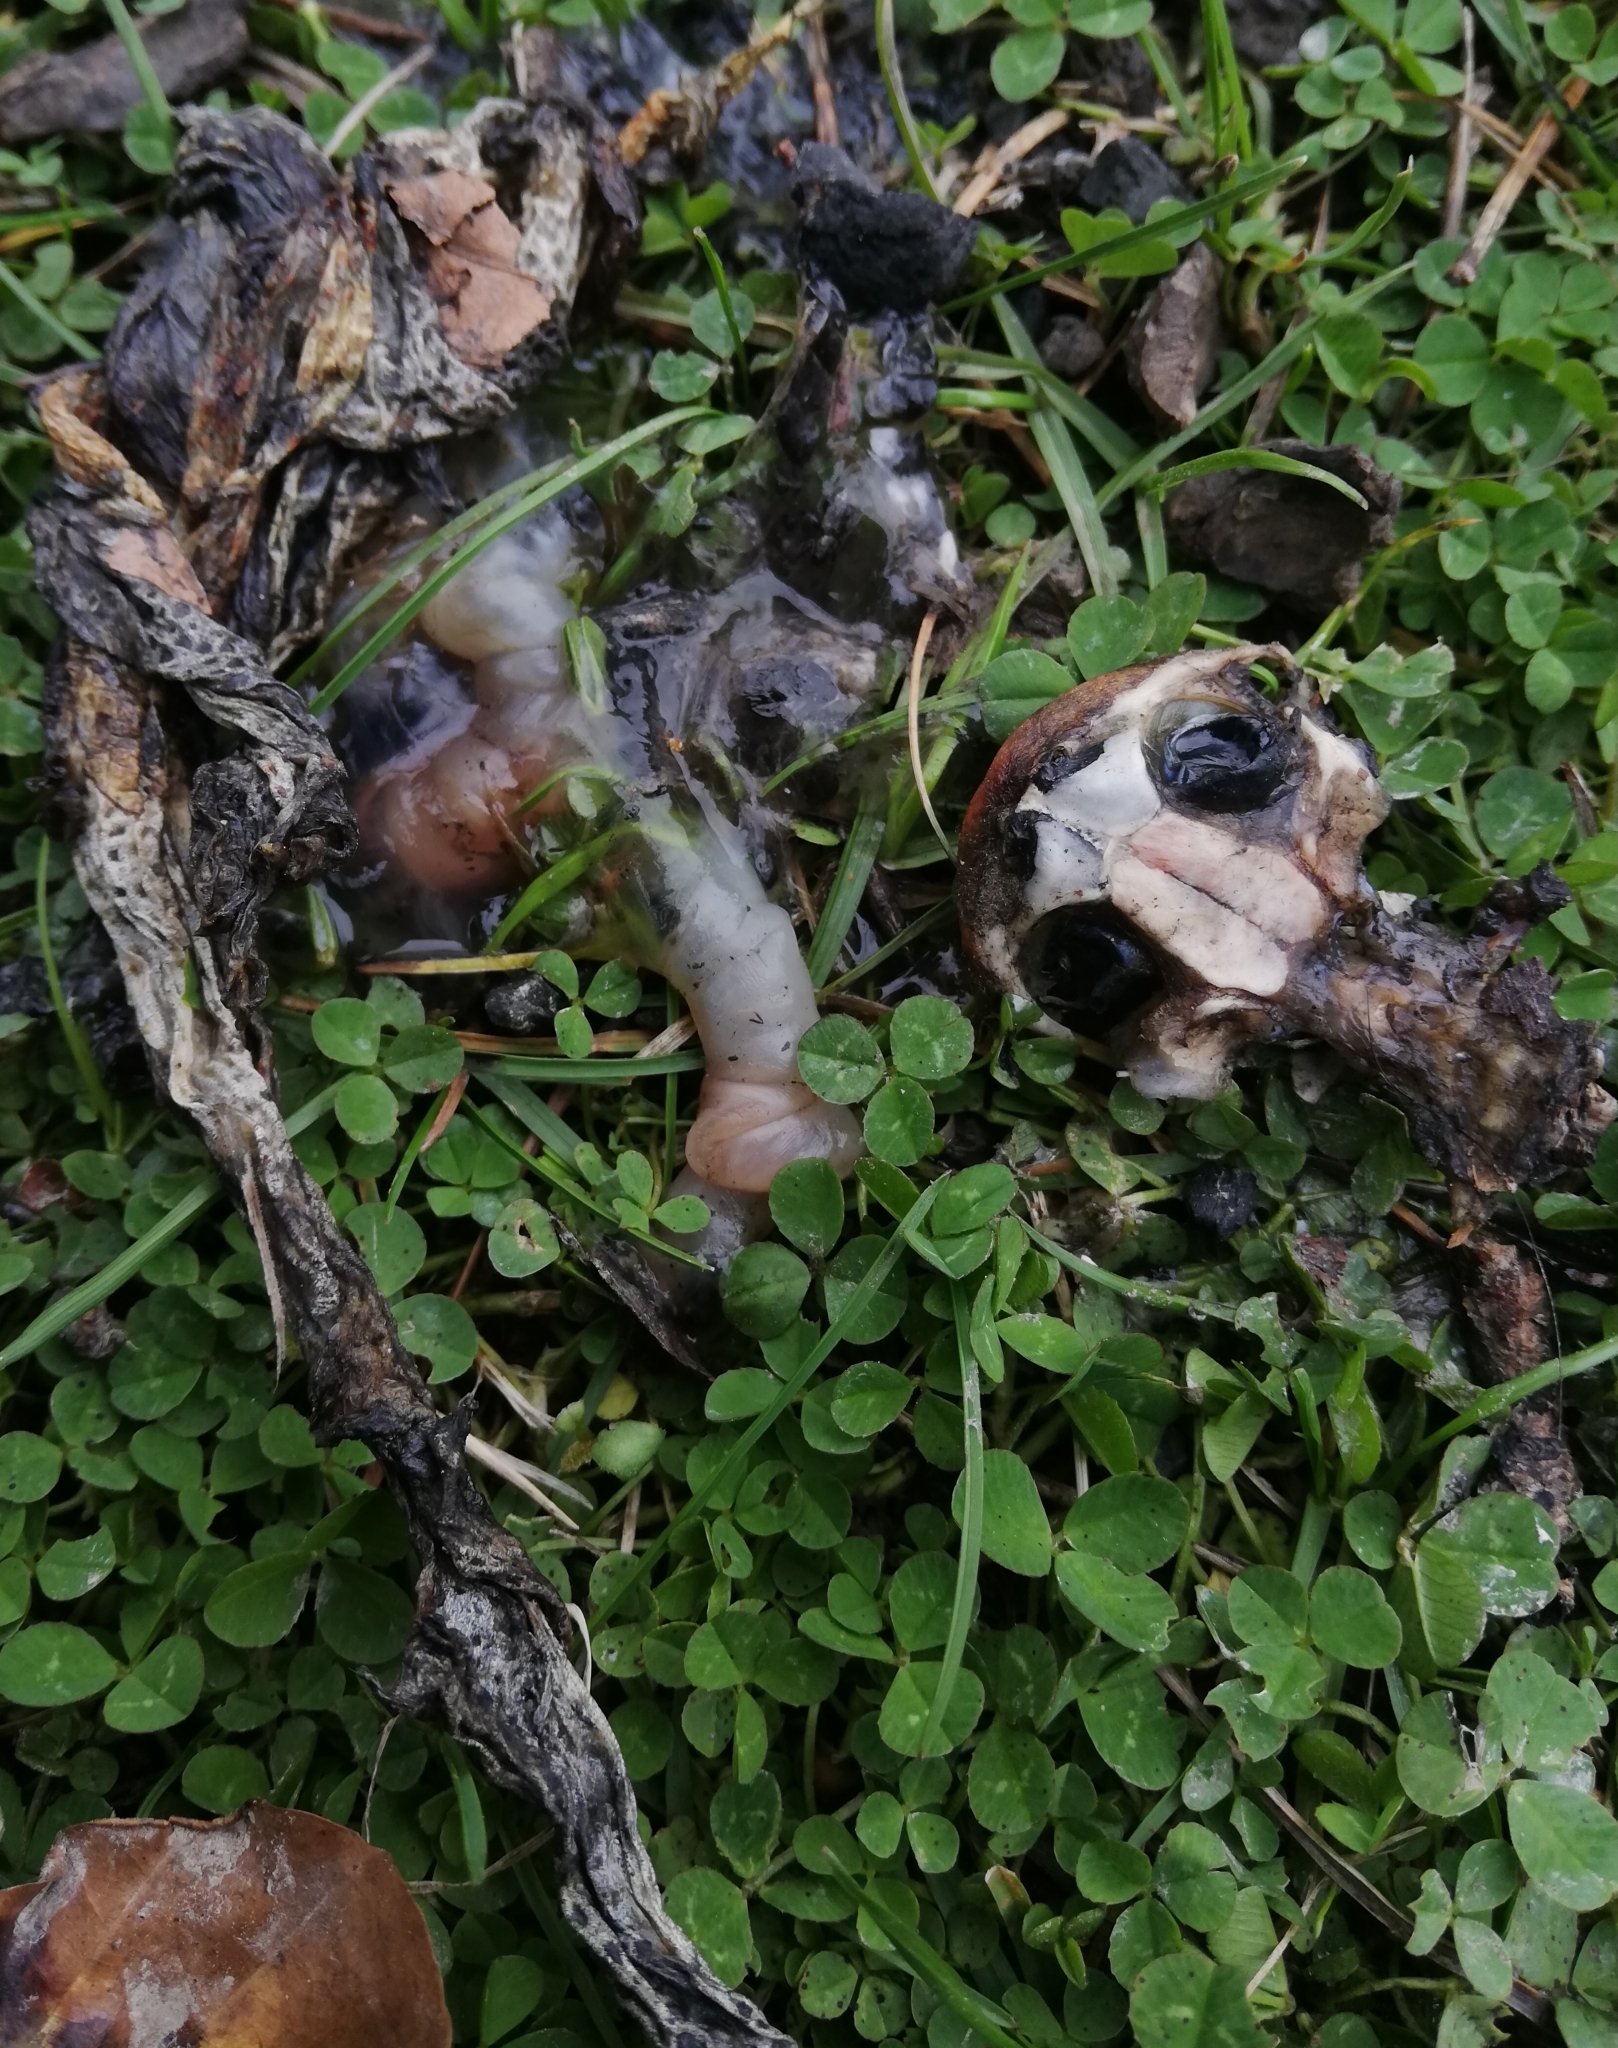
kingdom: Animalia
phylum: Chordata
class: Amphibia
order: Anura
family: Bufonidae
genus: Bufo
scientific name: Bufo bufo
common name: Common toad
